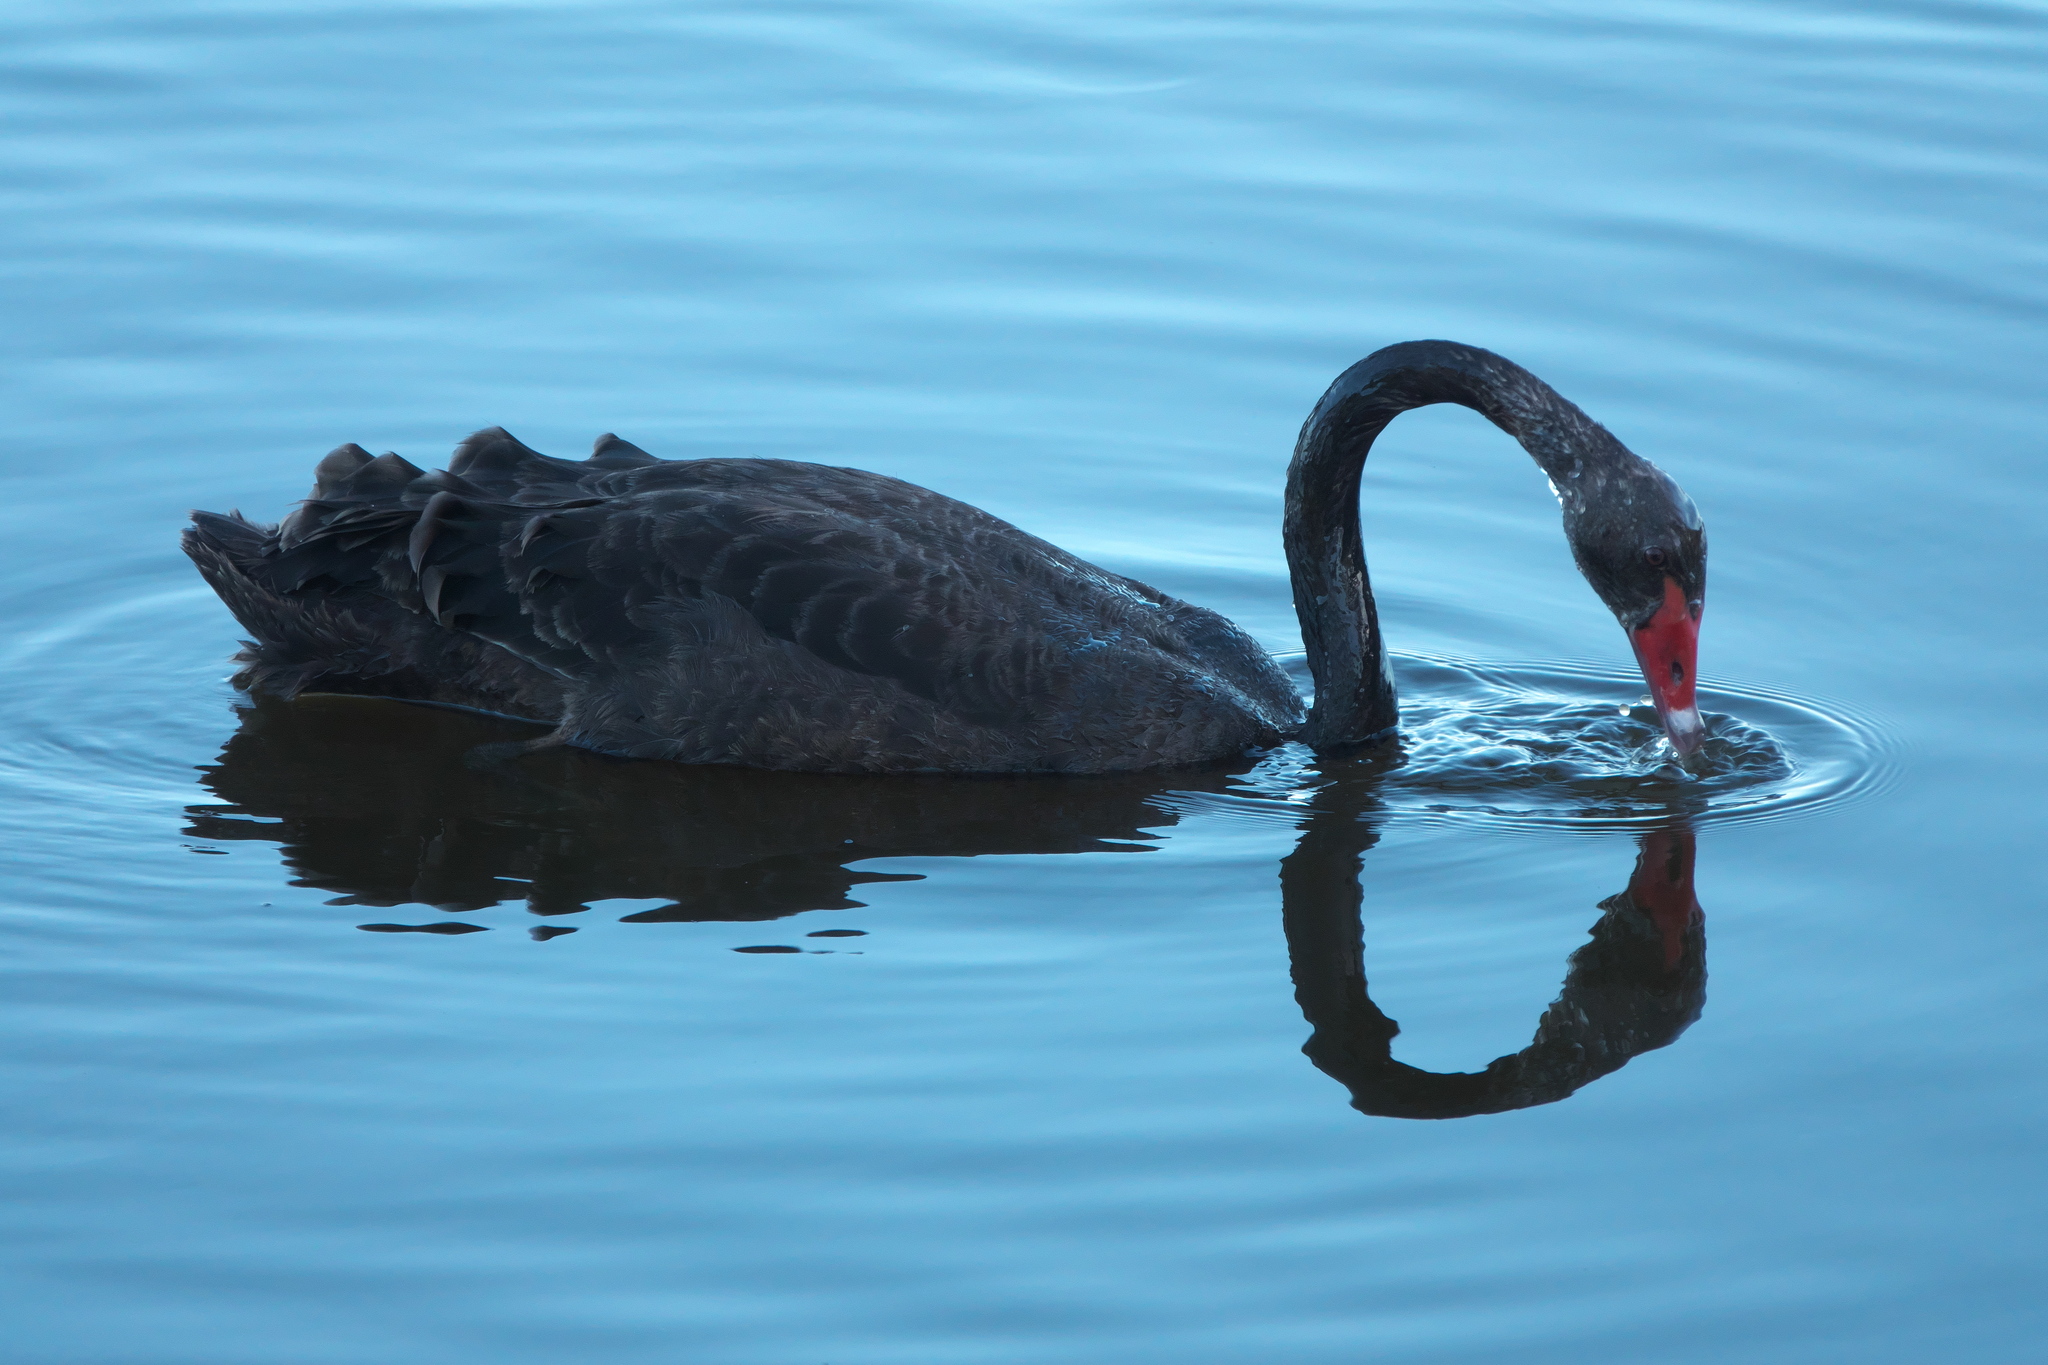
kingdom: Animalia
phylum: Chordata
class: Aves
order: Anseriformes
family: Anatidae
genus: Cygnus
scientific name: Cygnus atratus
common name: Black swan
